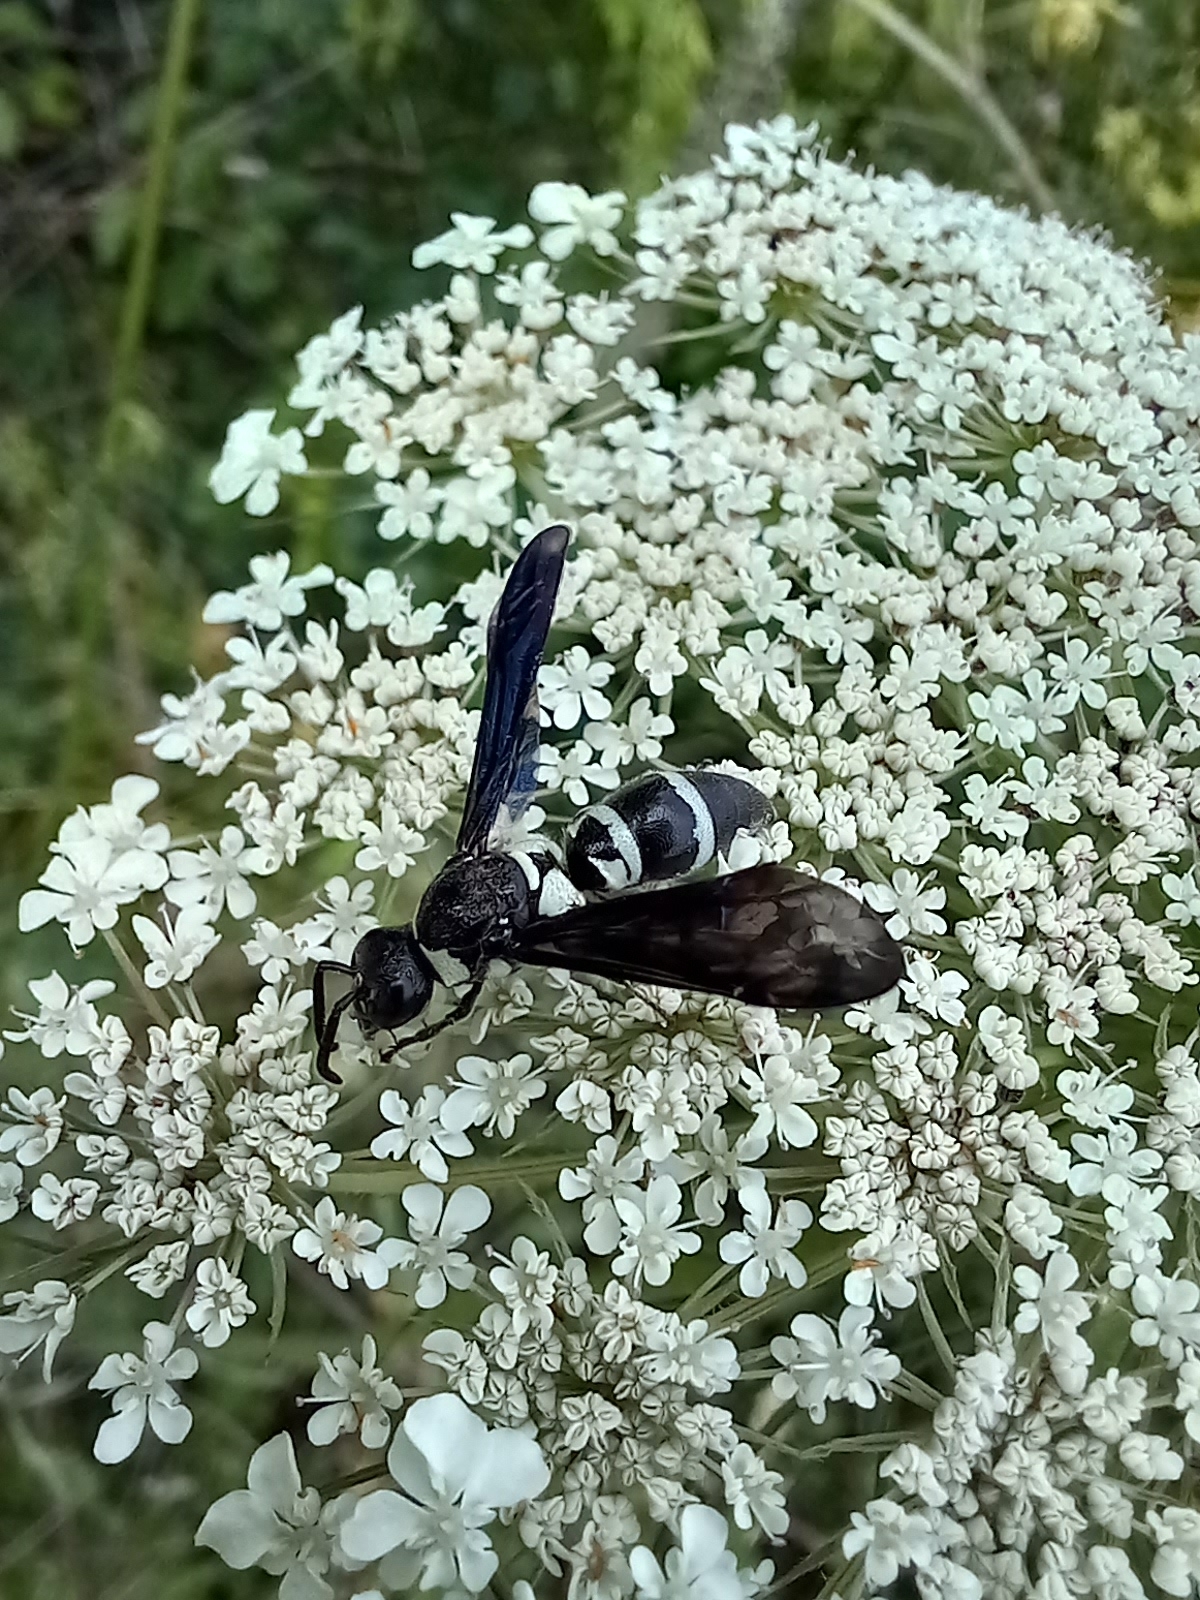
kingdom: Animalia
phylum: Arthropoda
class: Insecta
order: Hymenoptera
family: Eumenidae
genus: Pseudodynerus
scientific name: Pseudodynerus quadrisectus
